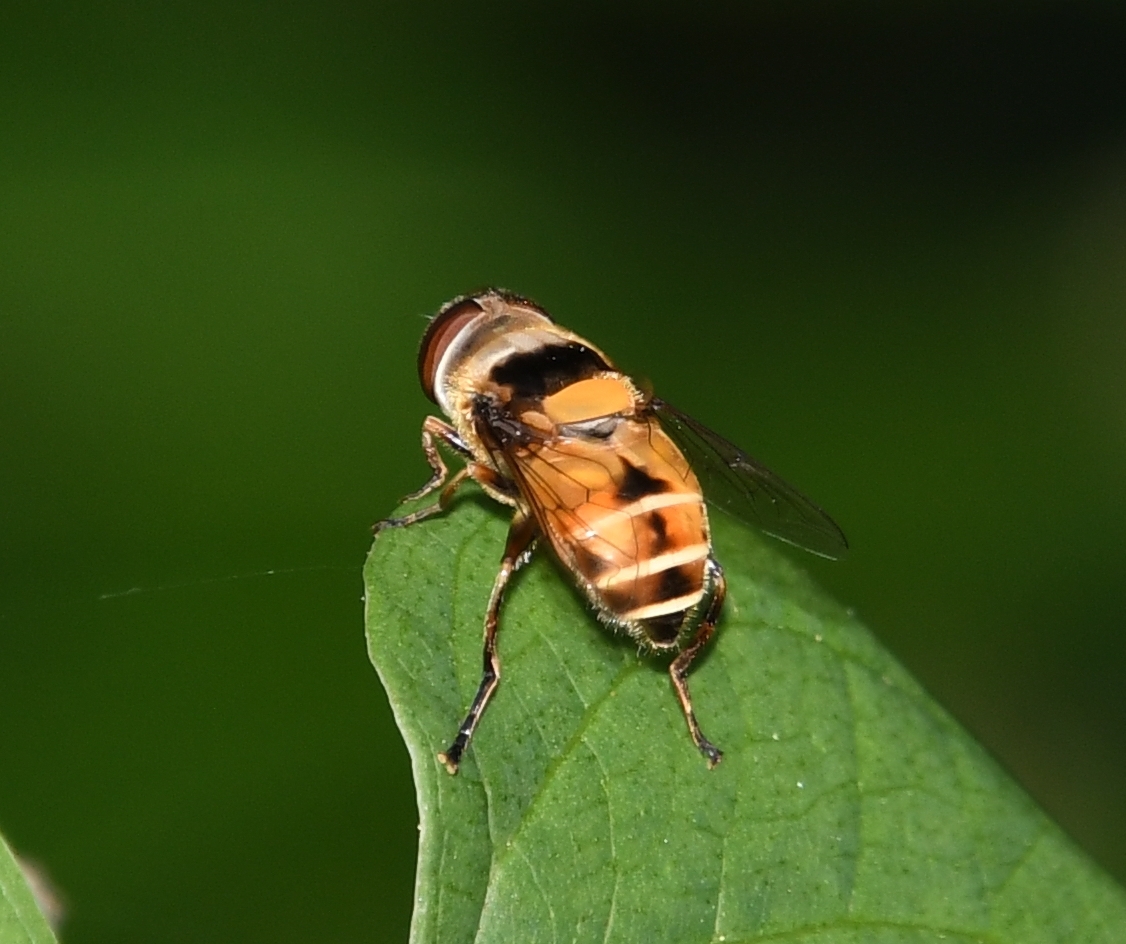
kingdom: Animalia
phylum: Arthropoda
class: Insecta
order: Diptera
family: Syrphidae
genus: Palpada
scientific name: Palpada pusilla
